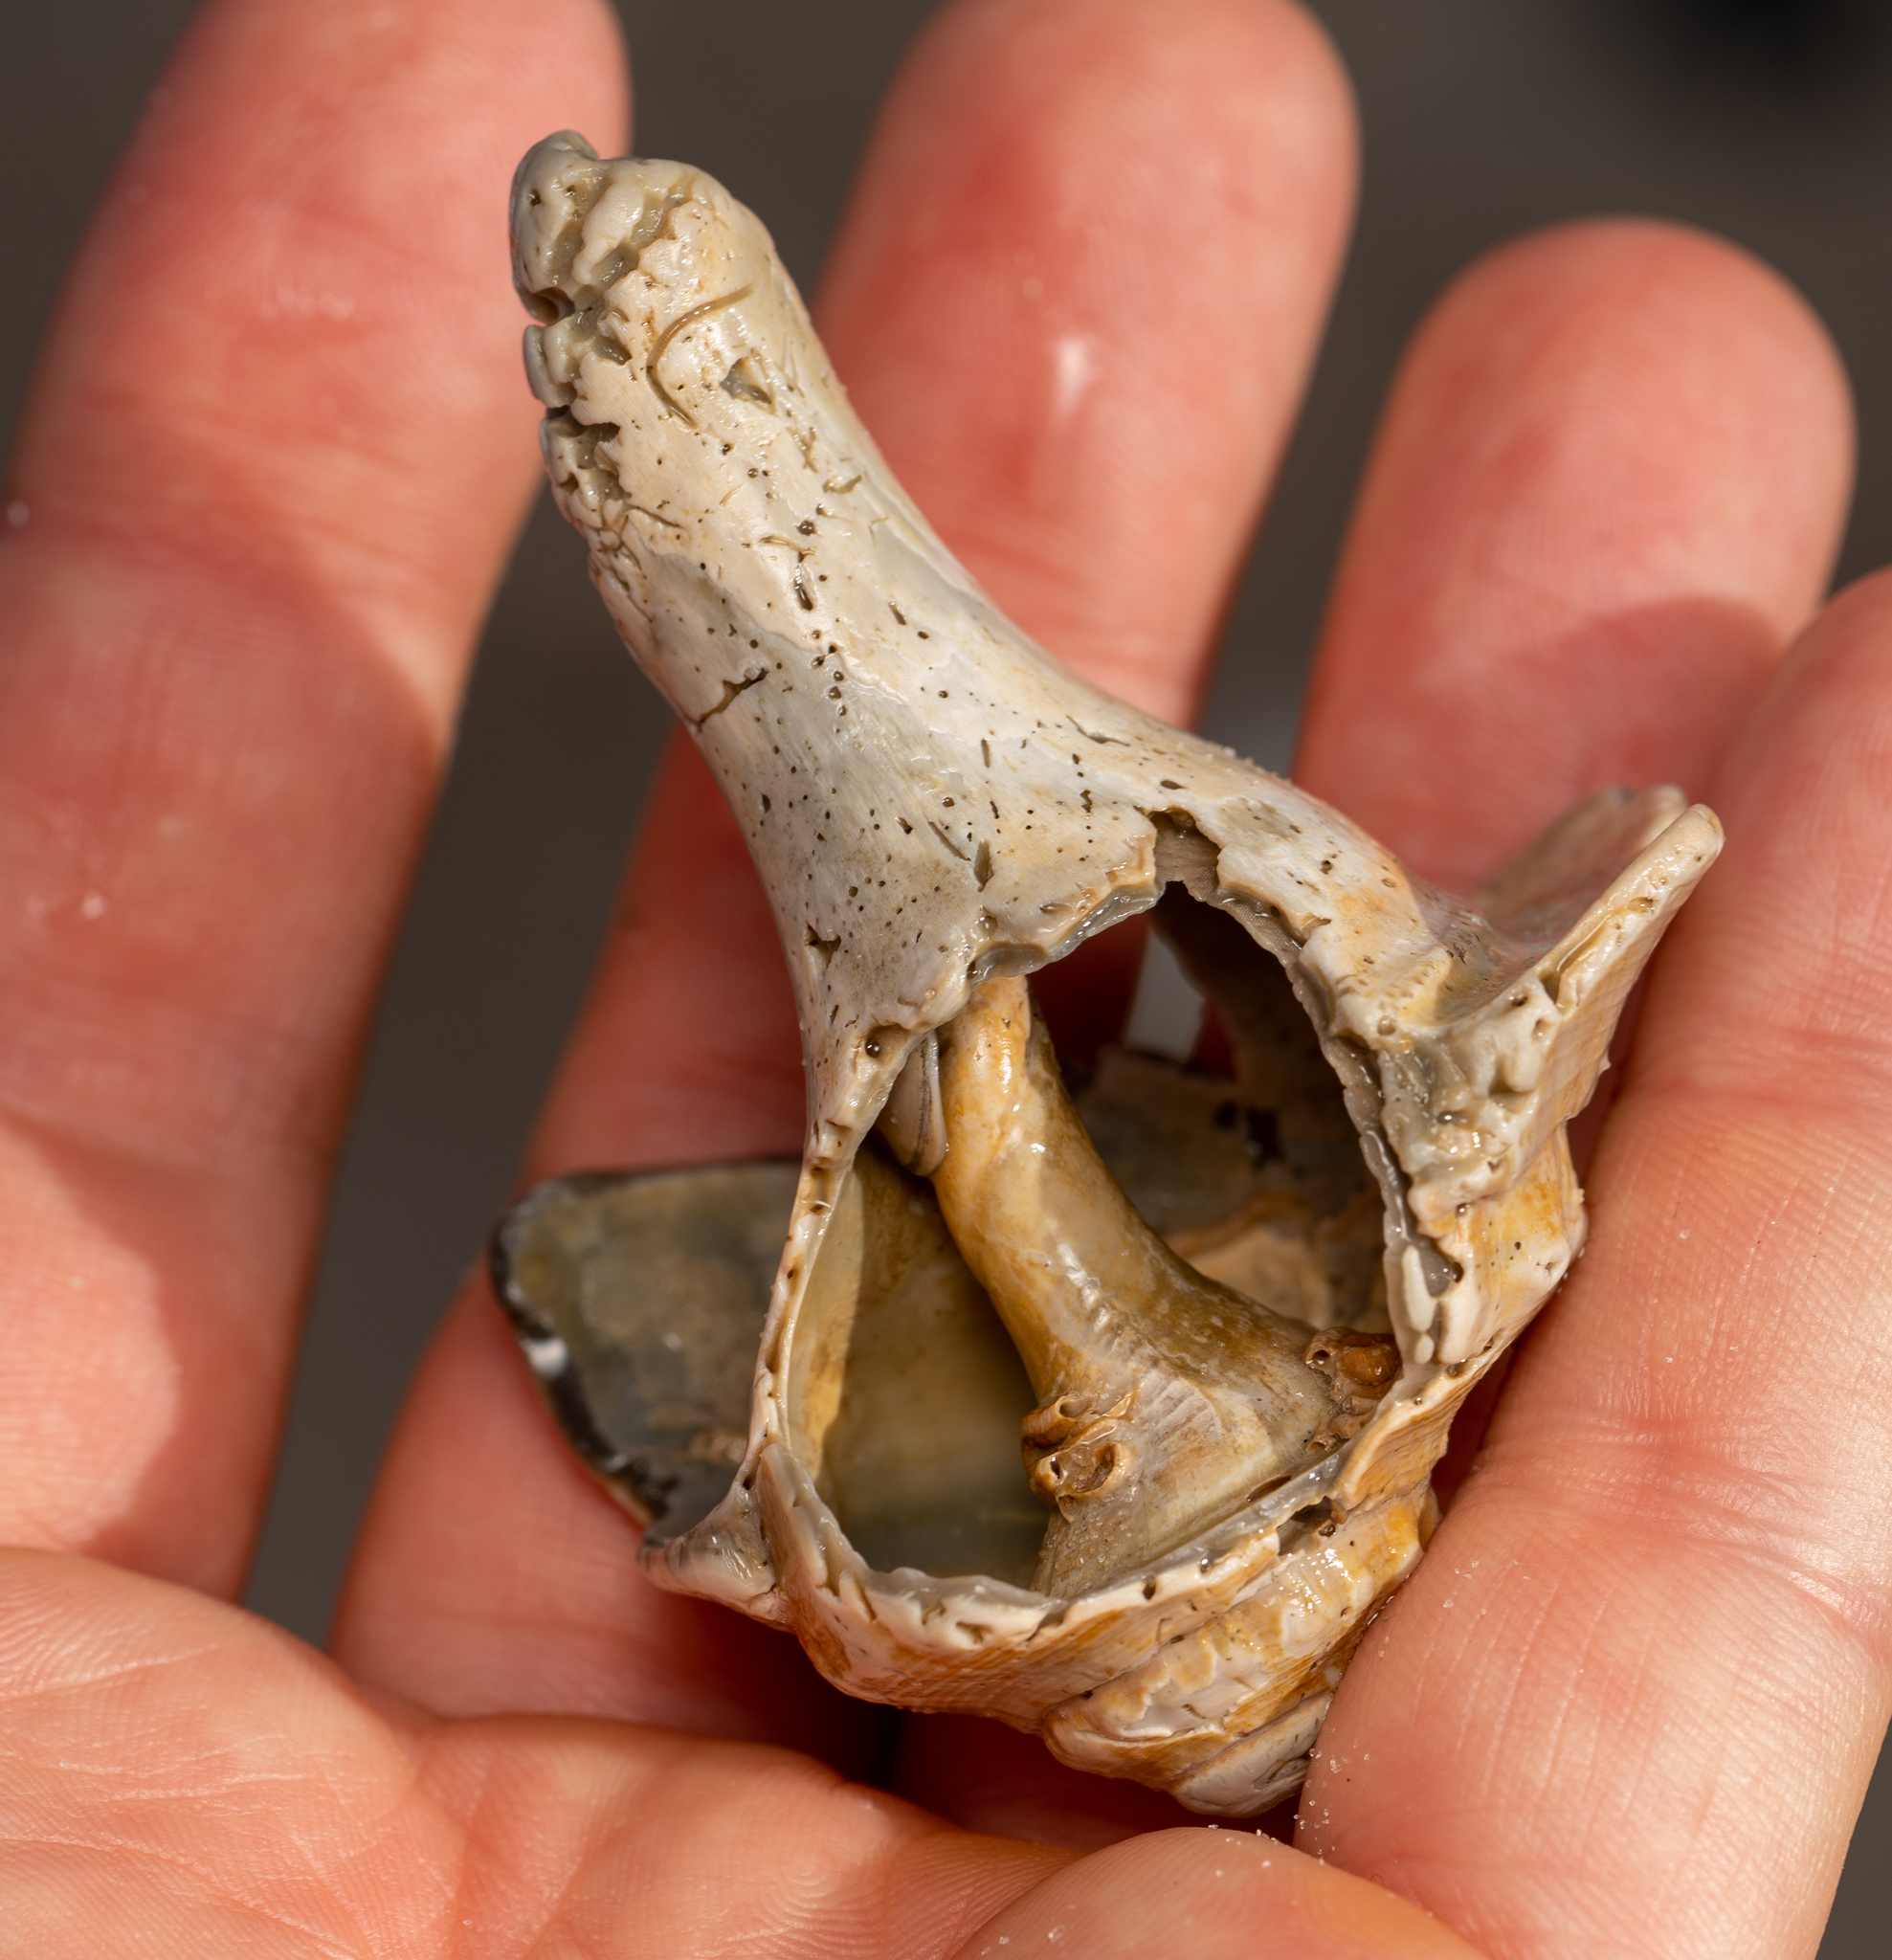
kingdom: Animalia
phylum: Mollusca
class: Gastropoda
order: Neogastropoda
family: Busyconidae
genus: Busycon
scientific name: Busycon carica
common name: Knobbed whelk
